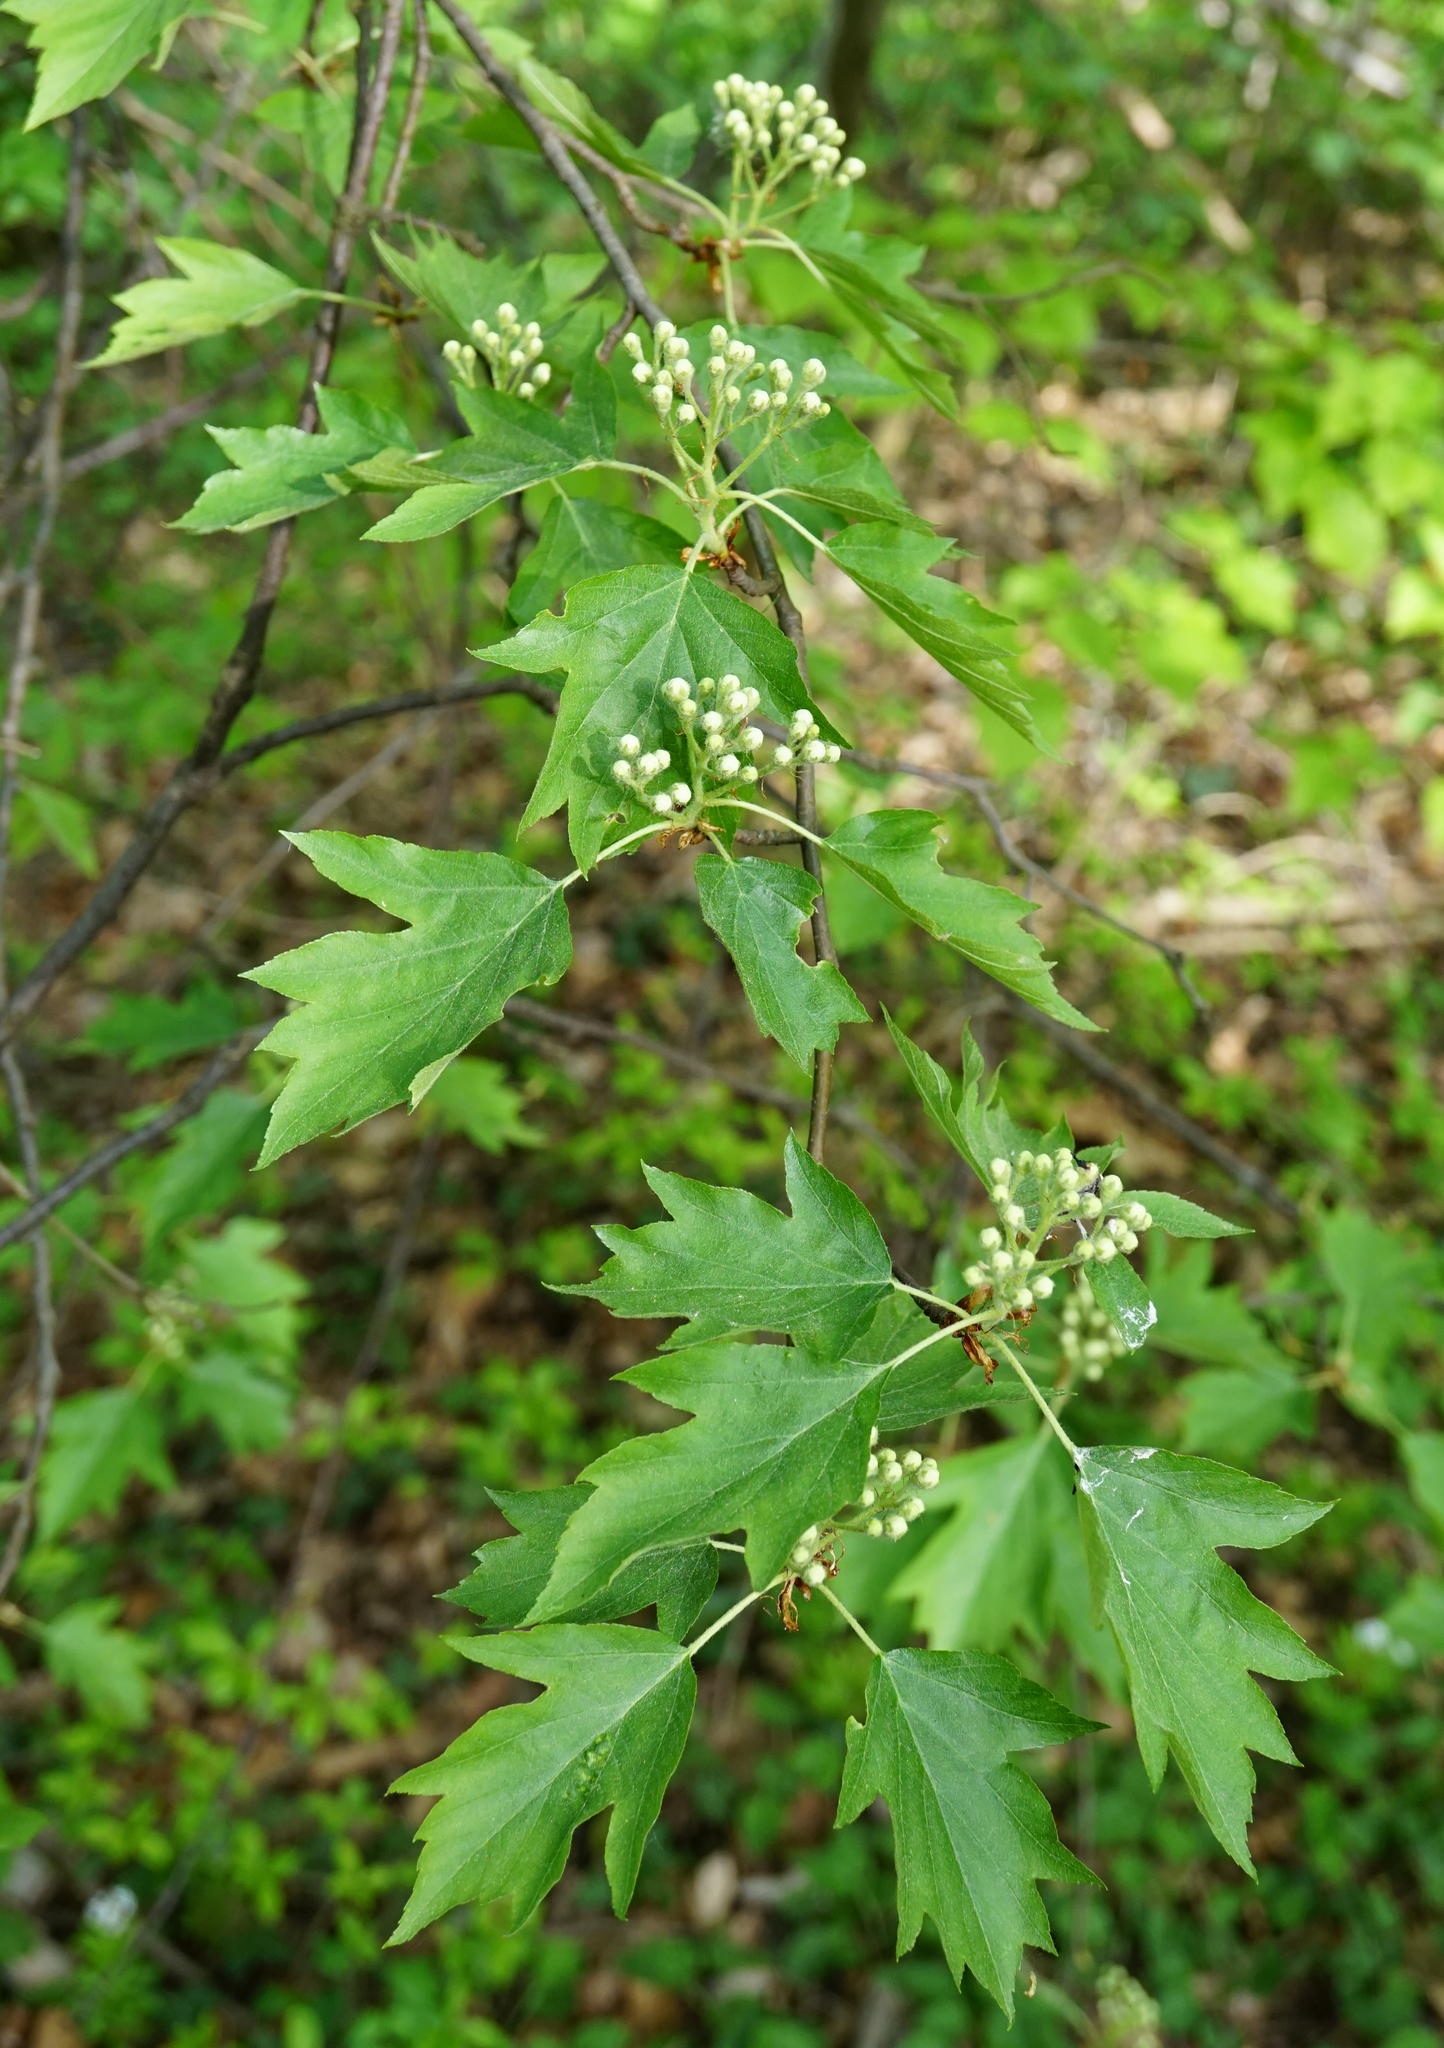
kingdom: Plantae
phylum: Tracheophyta
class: Magnoliopsida
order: Rosales
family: Rosaceae
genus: Torminalis
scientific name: Torminalis glaberrima
